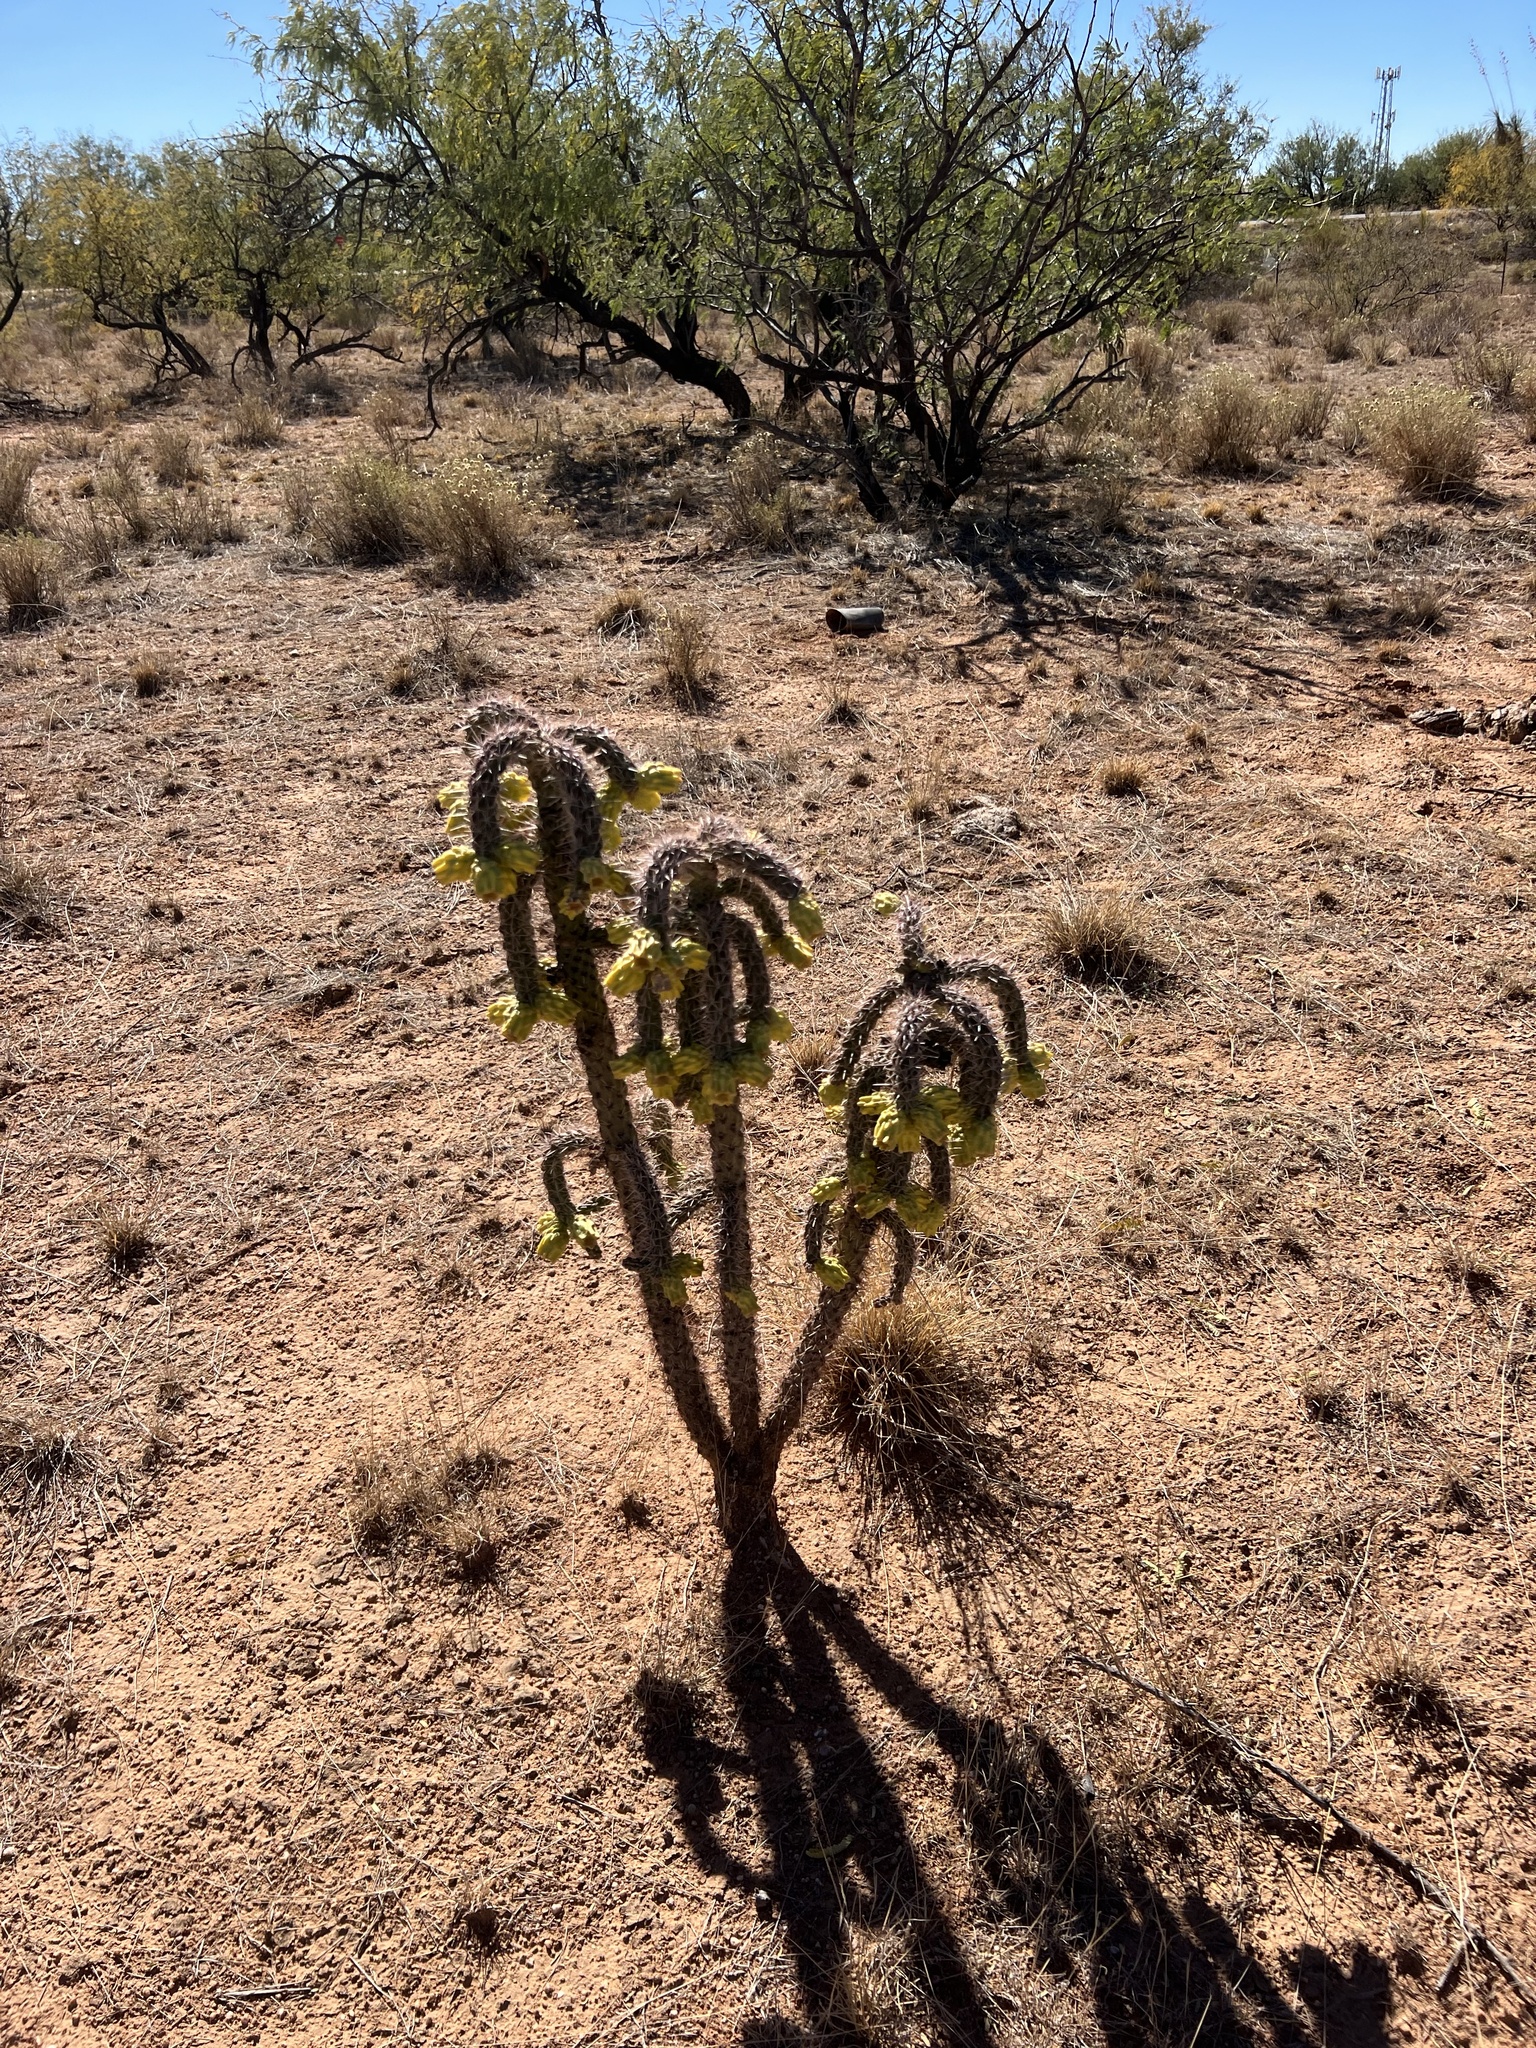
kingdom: Plantae
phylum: Tracheophyta
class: Magnoliopsida
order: Caryophyllales
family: Cactaceae
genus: Cylindropuntia
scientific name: Cylindropuntia imbricata
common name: Candelabrum cactus
